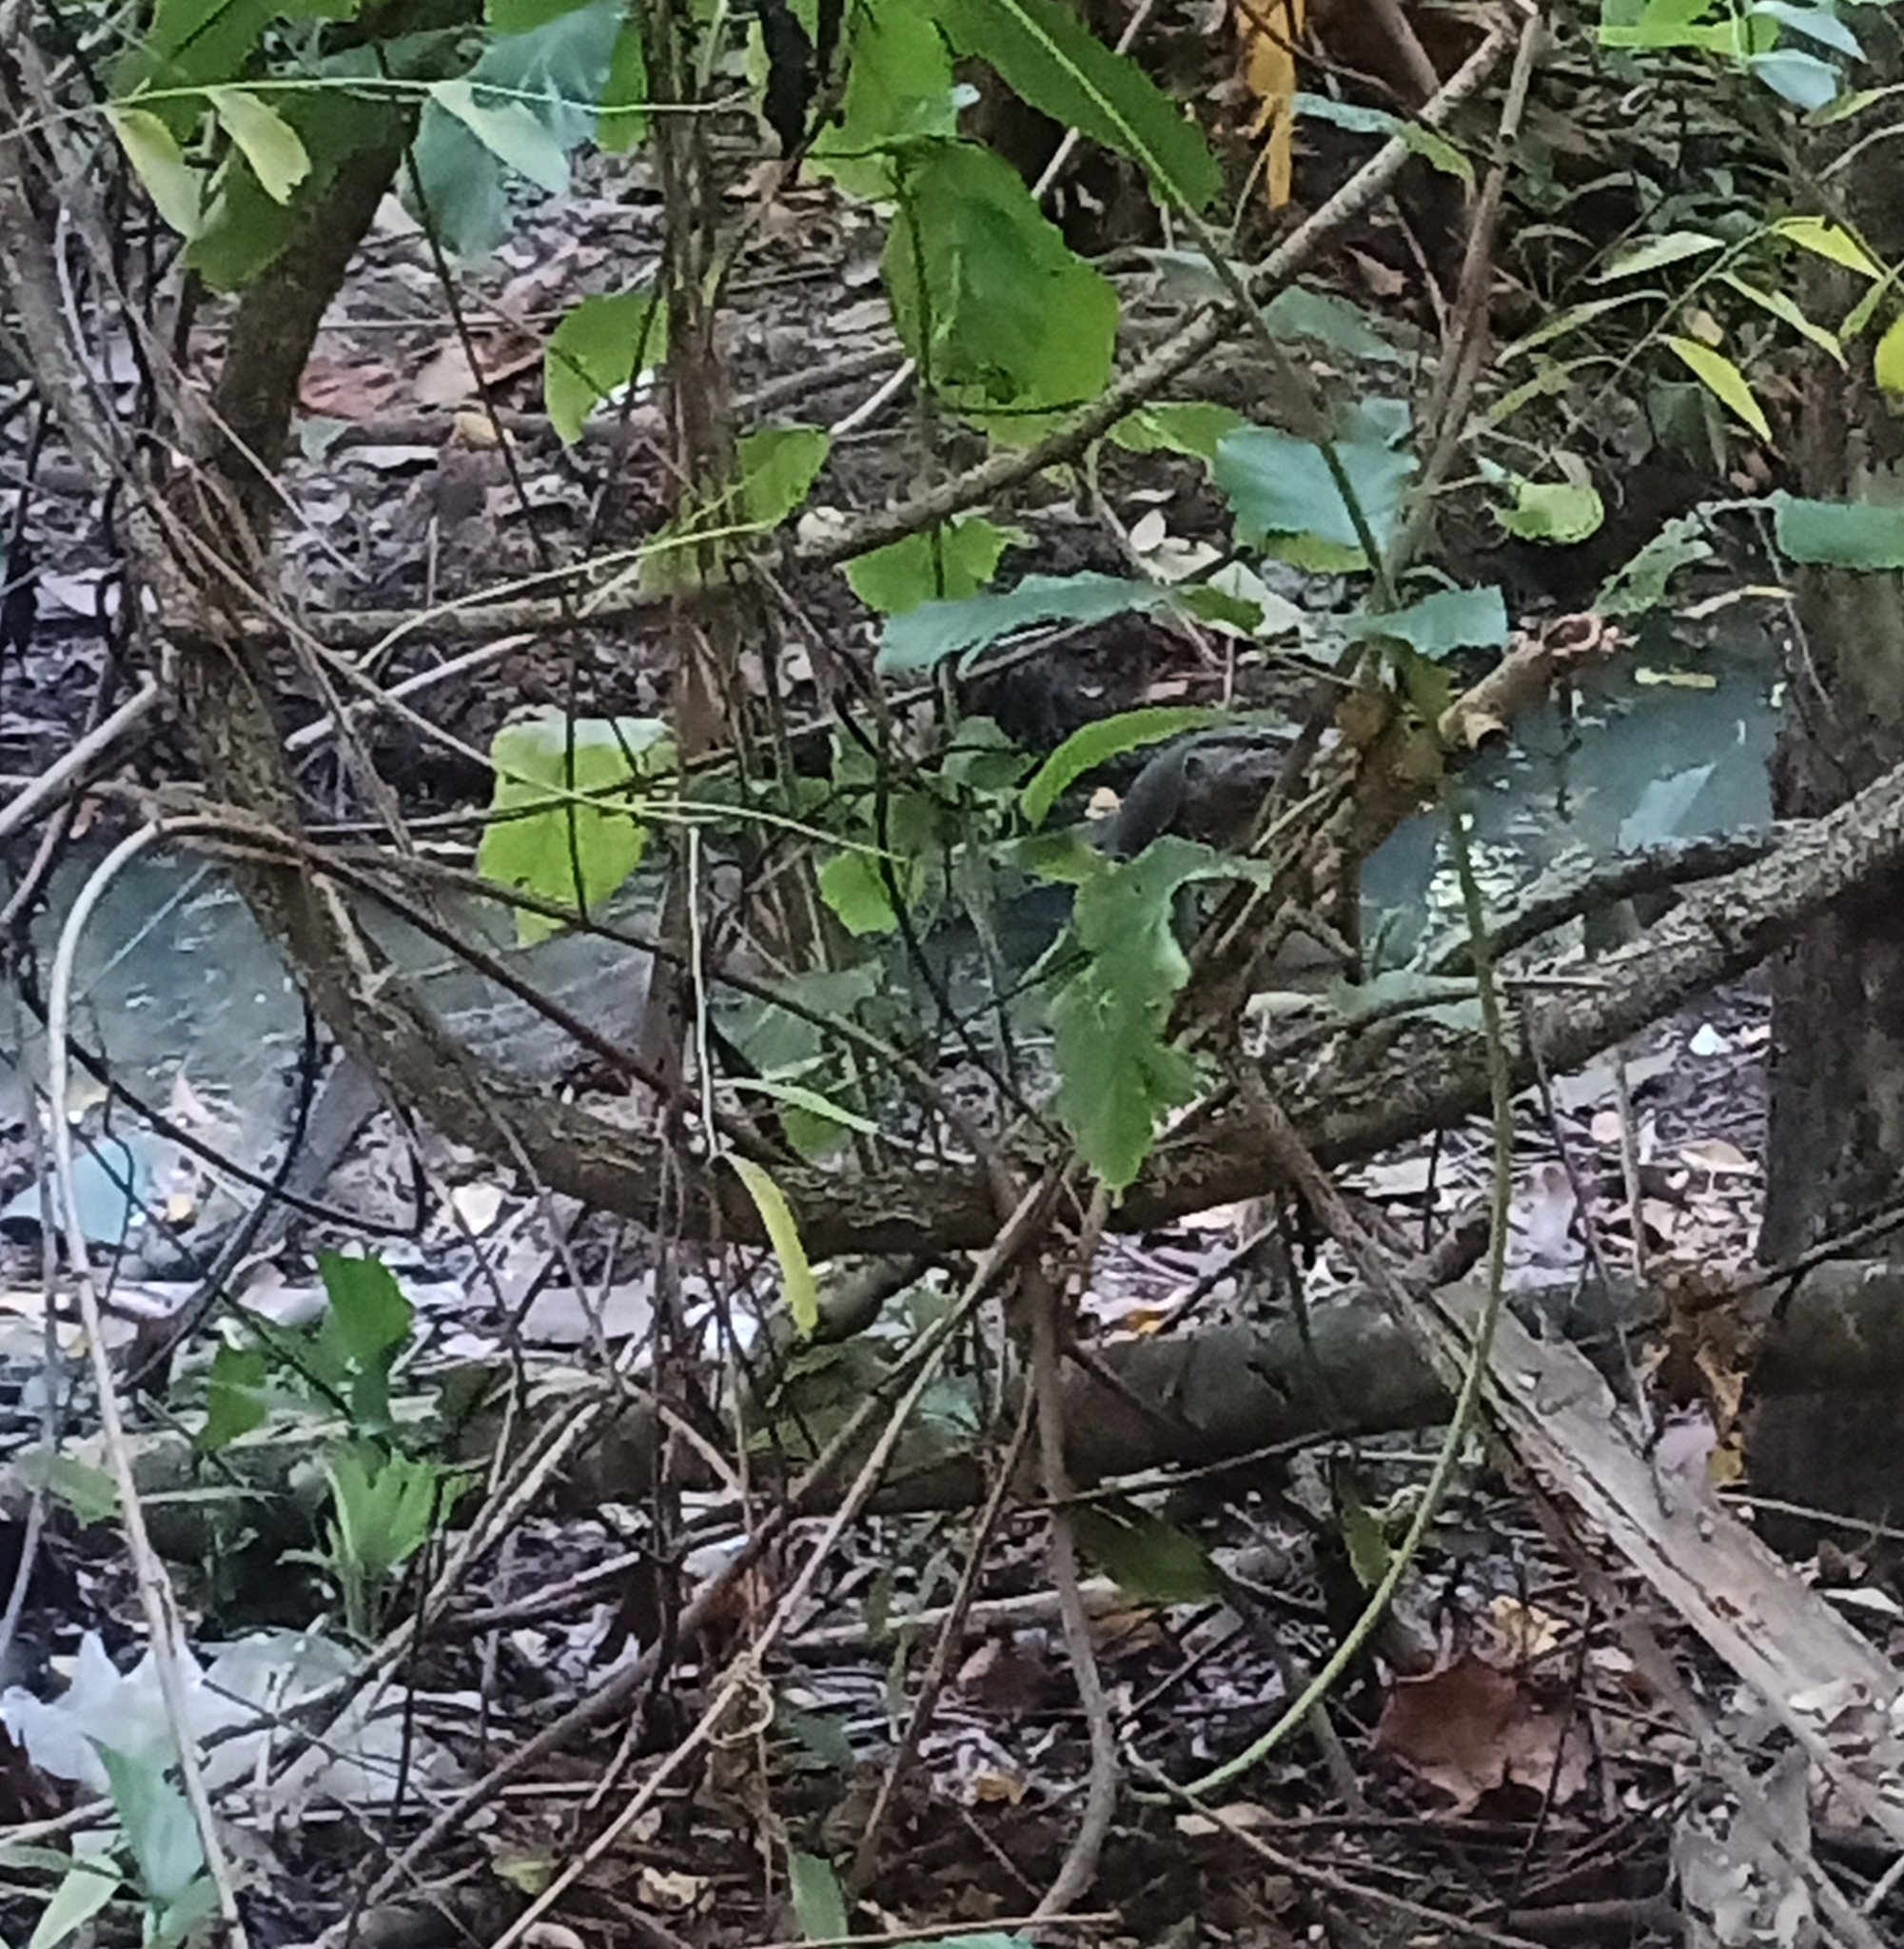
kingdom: Animalia
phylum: Chordata
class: Squamata
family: Varanidae
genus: Varanus
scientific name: Varanus salvator
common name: Common water monitor
